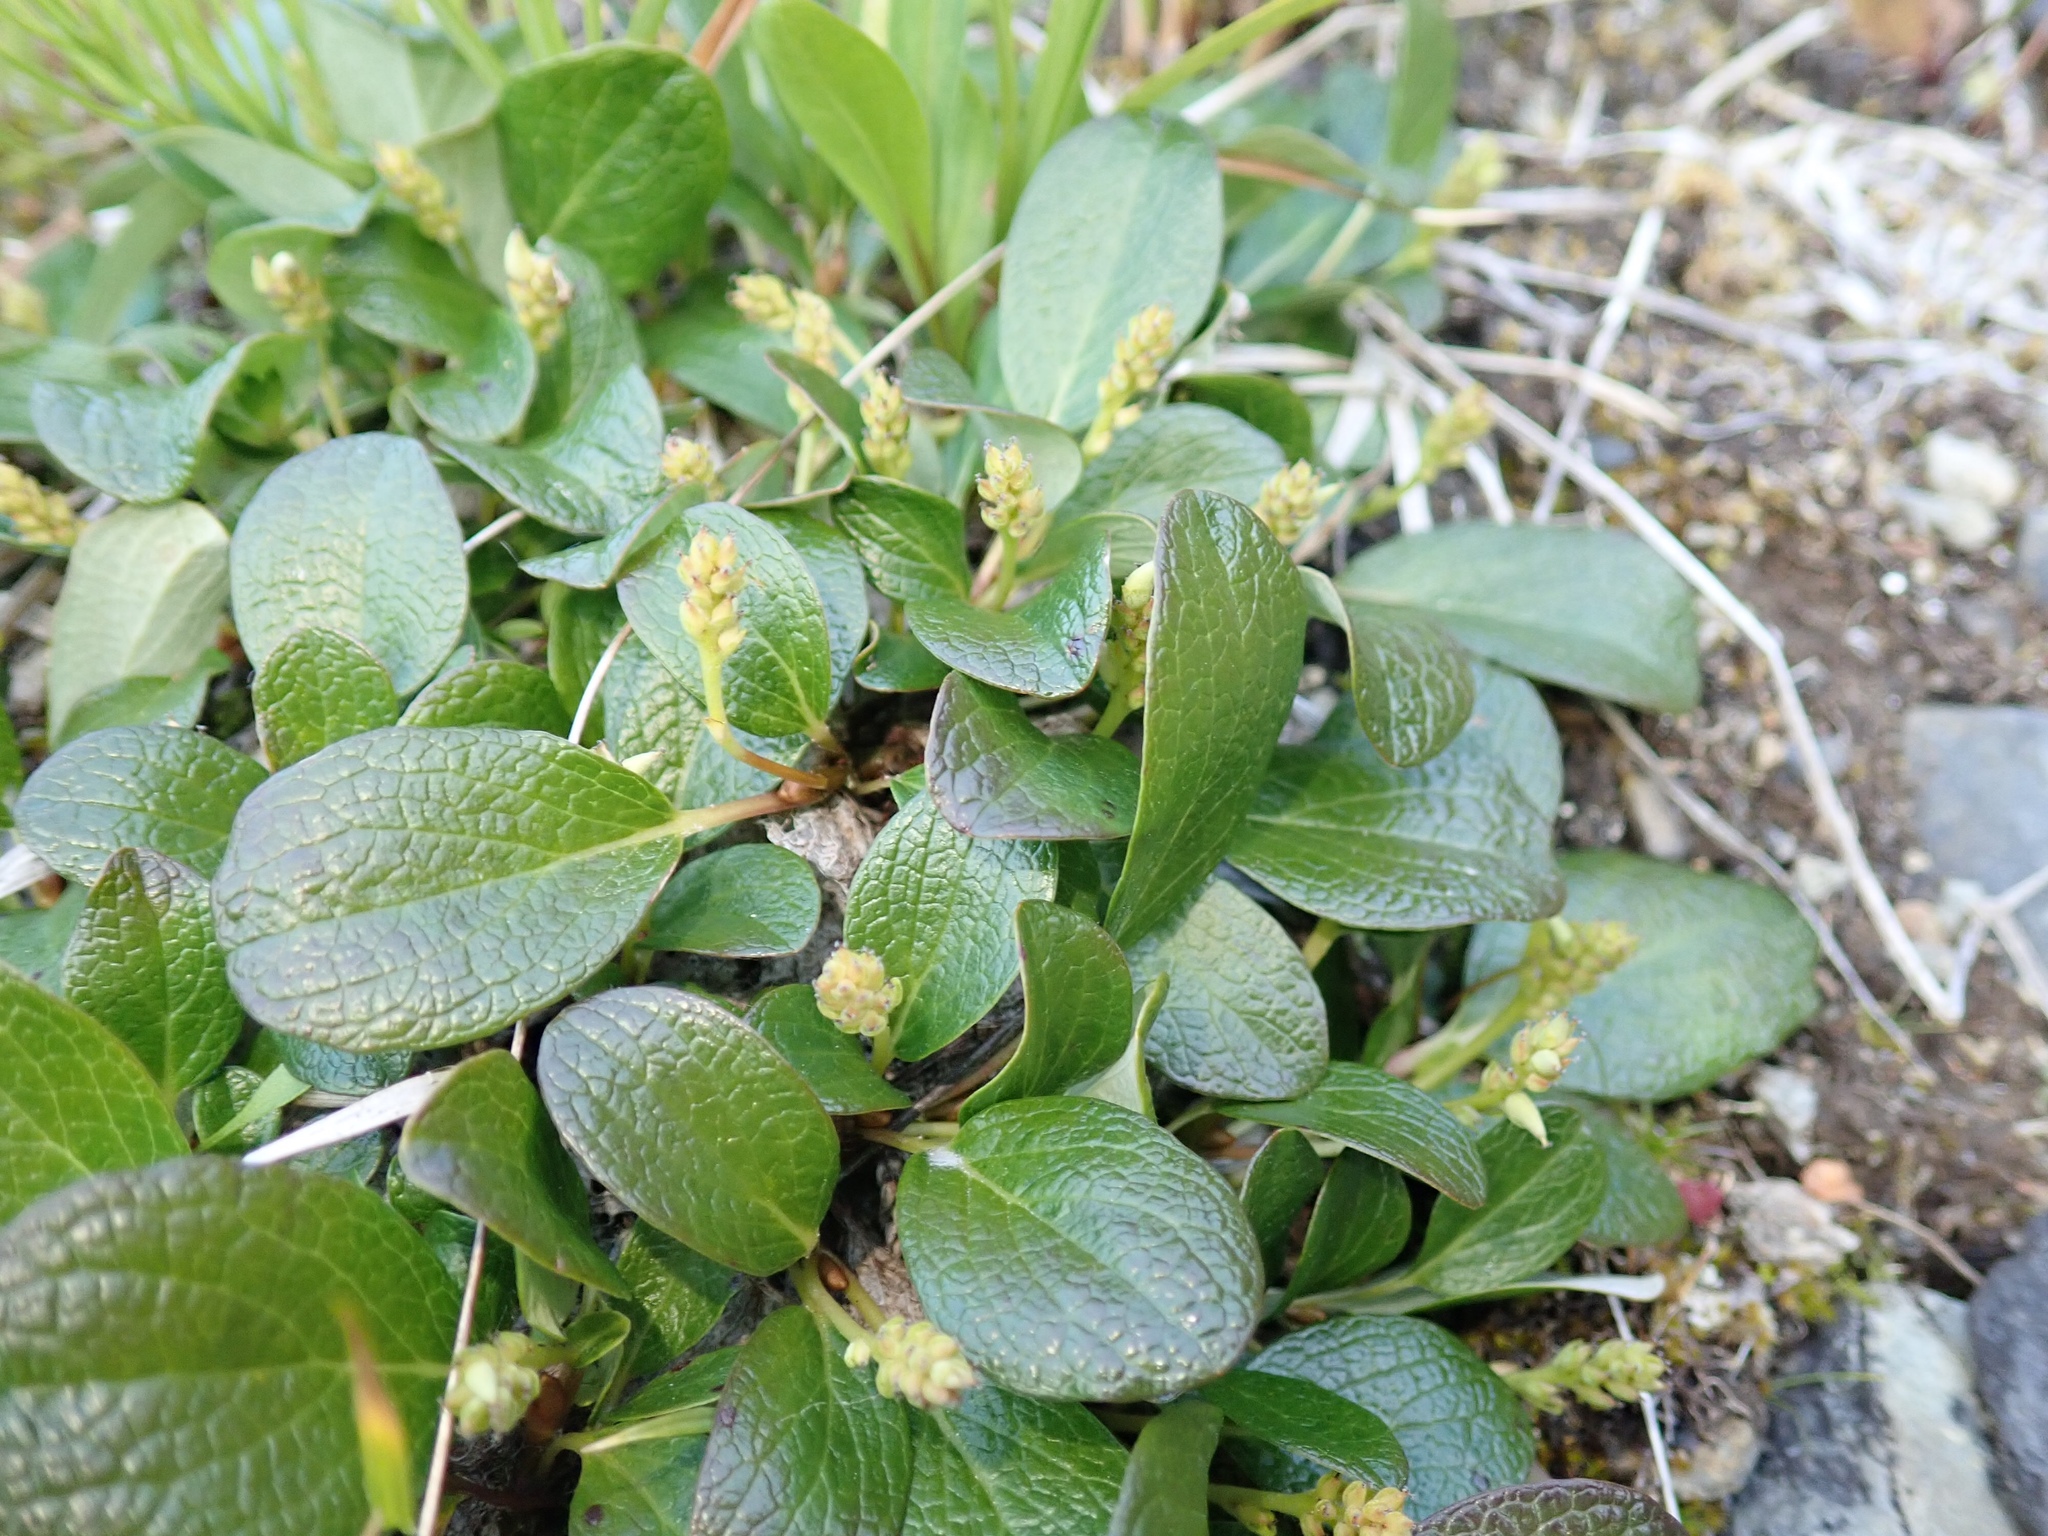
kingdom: Plantae
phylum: Tracheophyta
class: Magnoliopsida
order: Malpighiales
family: Salicaceae
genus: Salix
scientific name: Salix nivalis
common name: Dwarf snow willow
